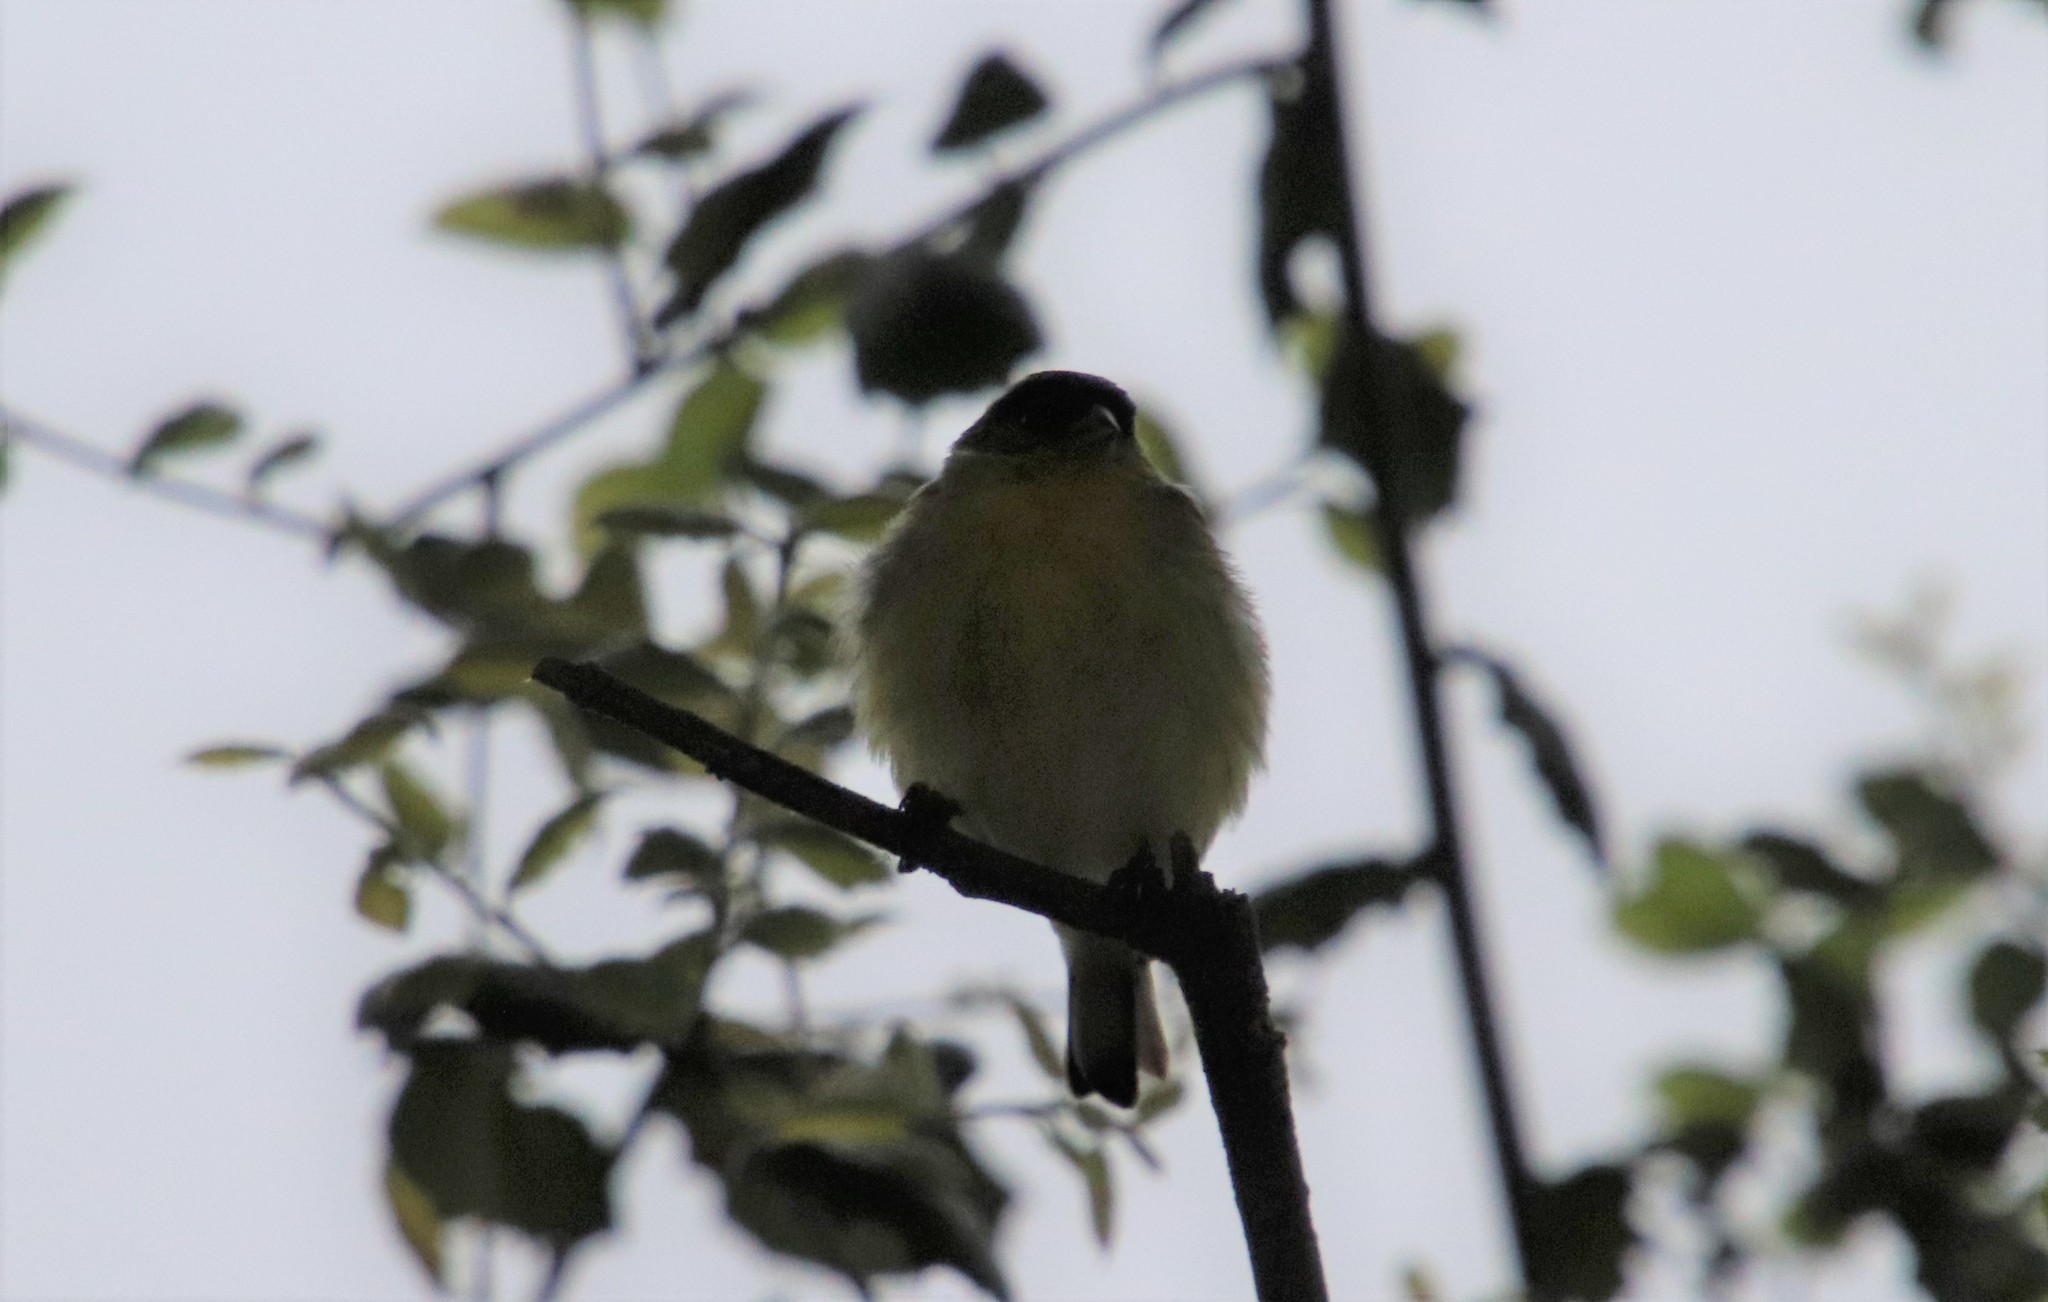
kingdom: Animalia
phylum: Chordata
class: Aves
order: Passeriformes
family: Fringillidae
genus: Spinus
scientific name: Spinus psaltria
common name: Lesser goldfinch
